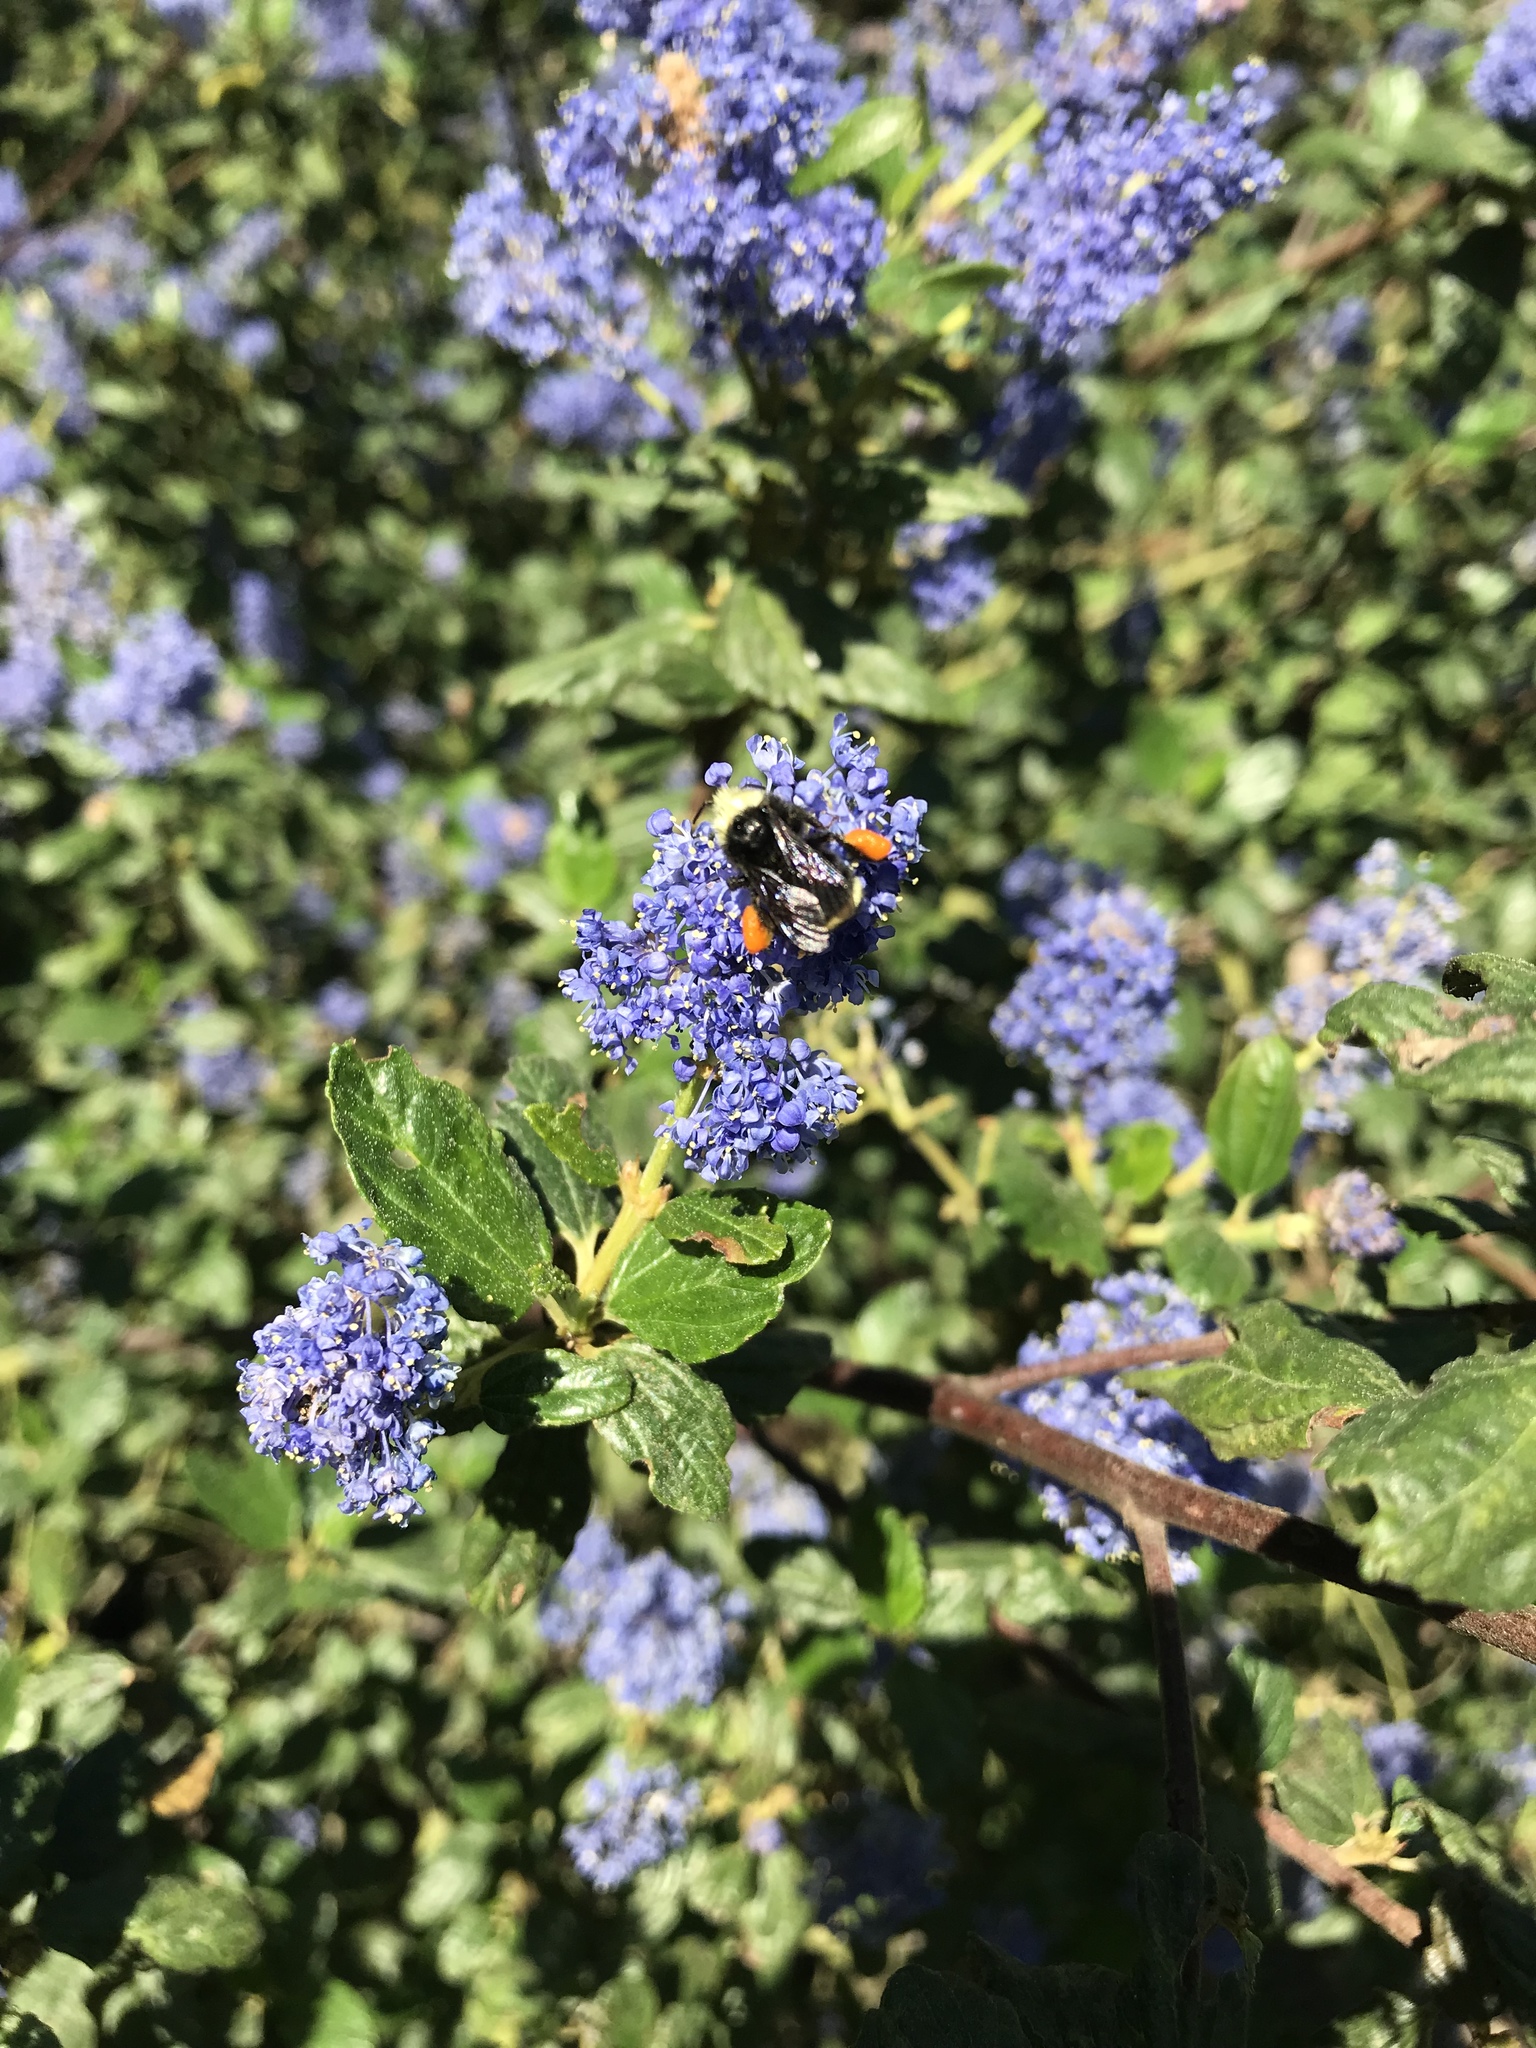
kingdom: Animalia
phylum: Arthropoda
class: Insecta
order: Hymenoptera
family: Apidae
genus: Pyrobombus
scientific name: Pyrobombus
